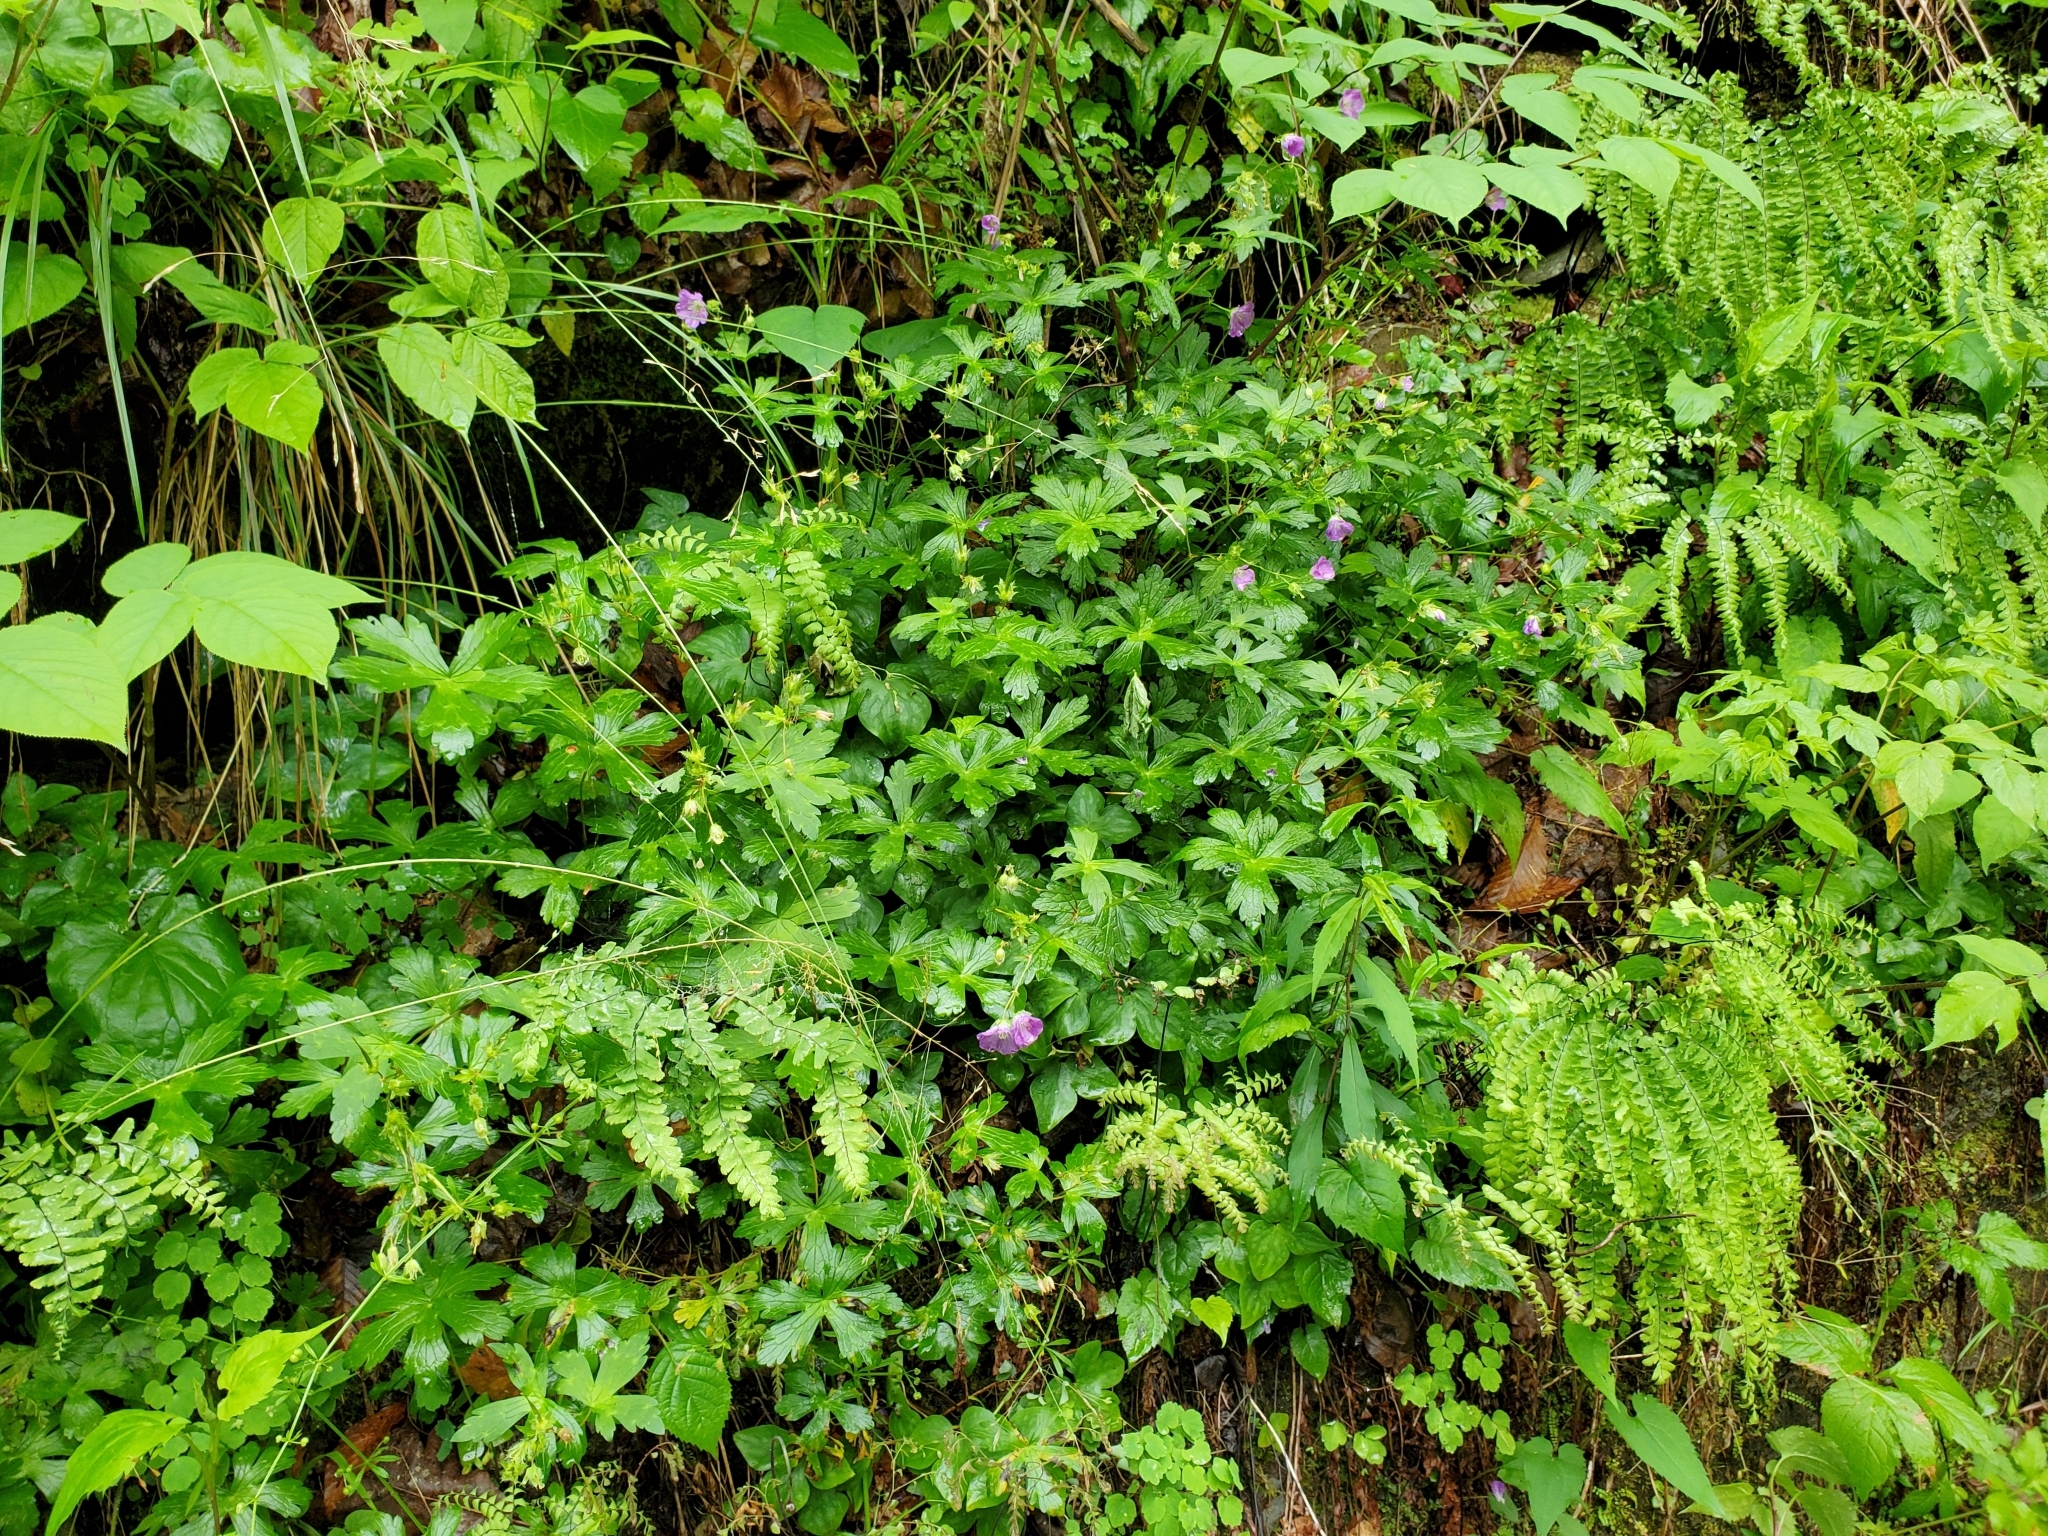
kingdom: Plantae
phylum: Tracheophyta
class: Magnoliopsida
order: Geraniales
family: Geraniaceae
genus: Geranium
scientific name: Geranium maculatum
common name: Spotted geranium
